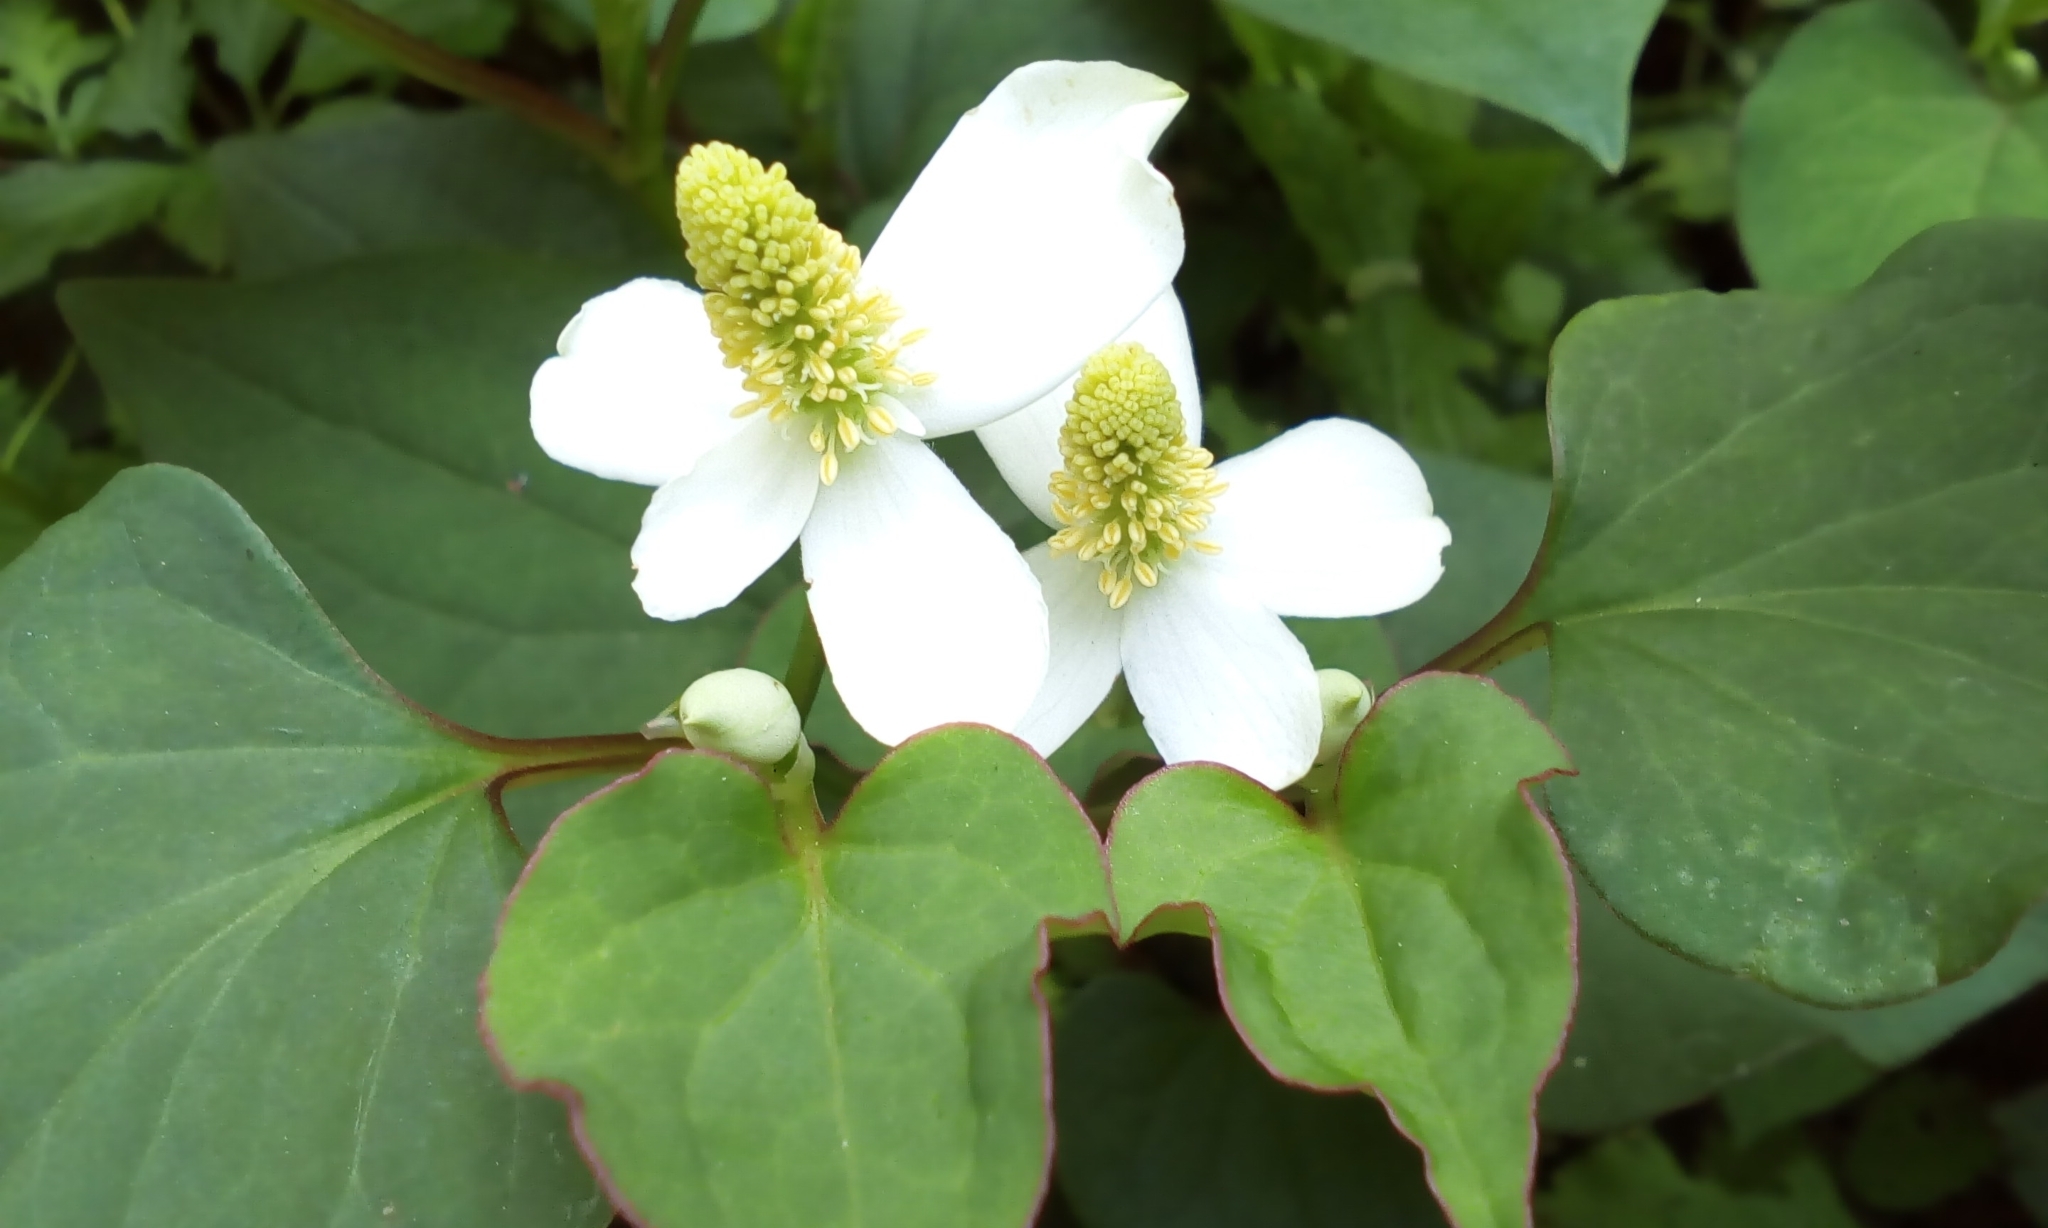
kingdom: Plantae
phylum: Tracheophyta
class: Magnoliopsida
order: Piperales
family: Saururaceae
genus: Houttuynia
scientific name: Houttuynia cordata
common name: Chameleon
